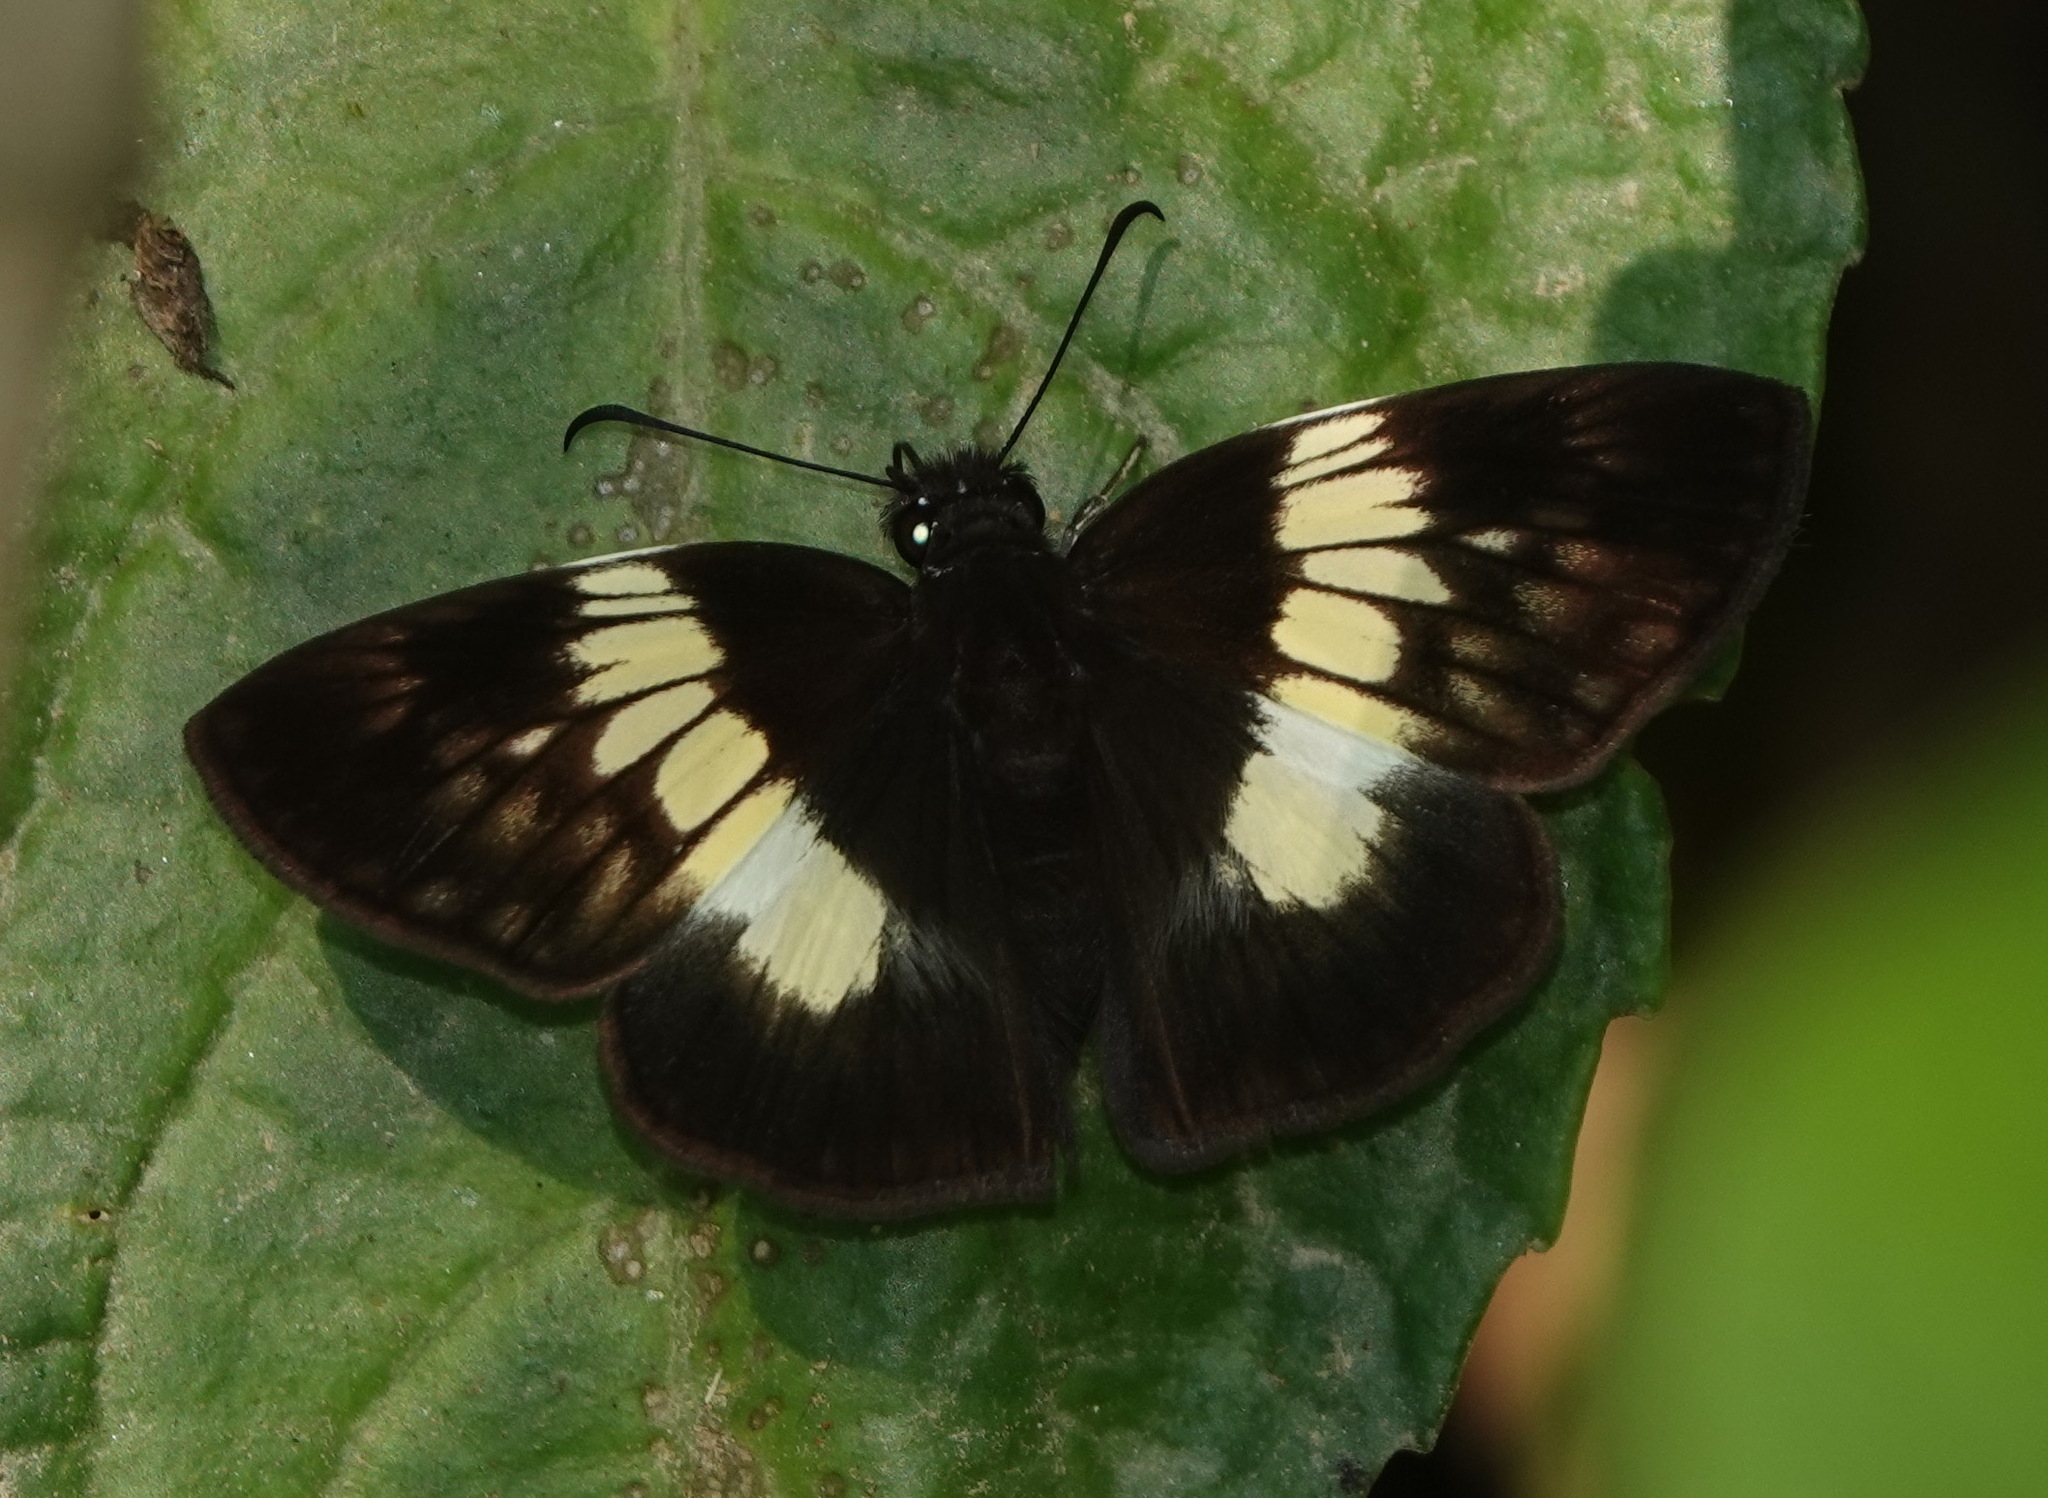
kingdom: Animalia
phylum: Arthropoda
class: Insecta
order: Lepidoptera
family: Hesperiidae
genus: Potamanaxas
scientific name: Potamanaxas thestia
